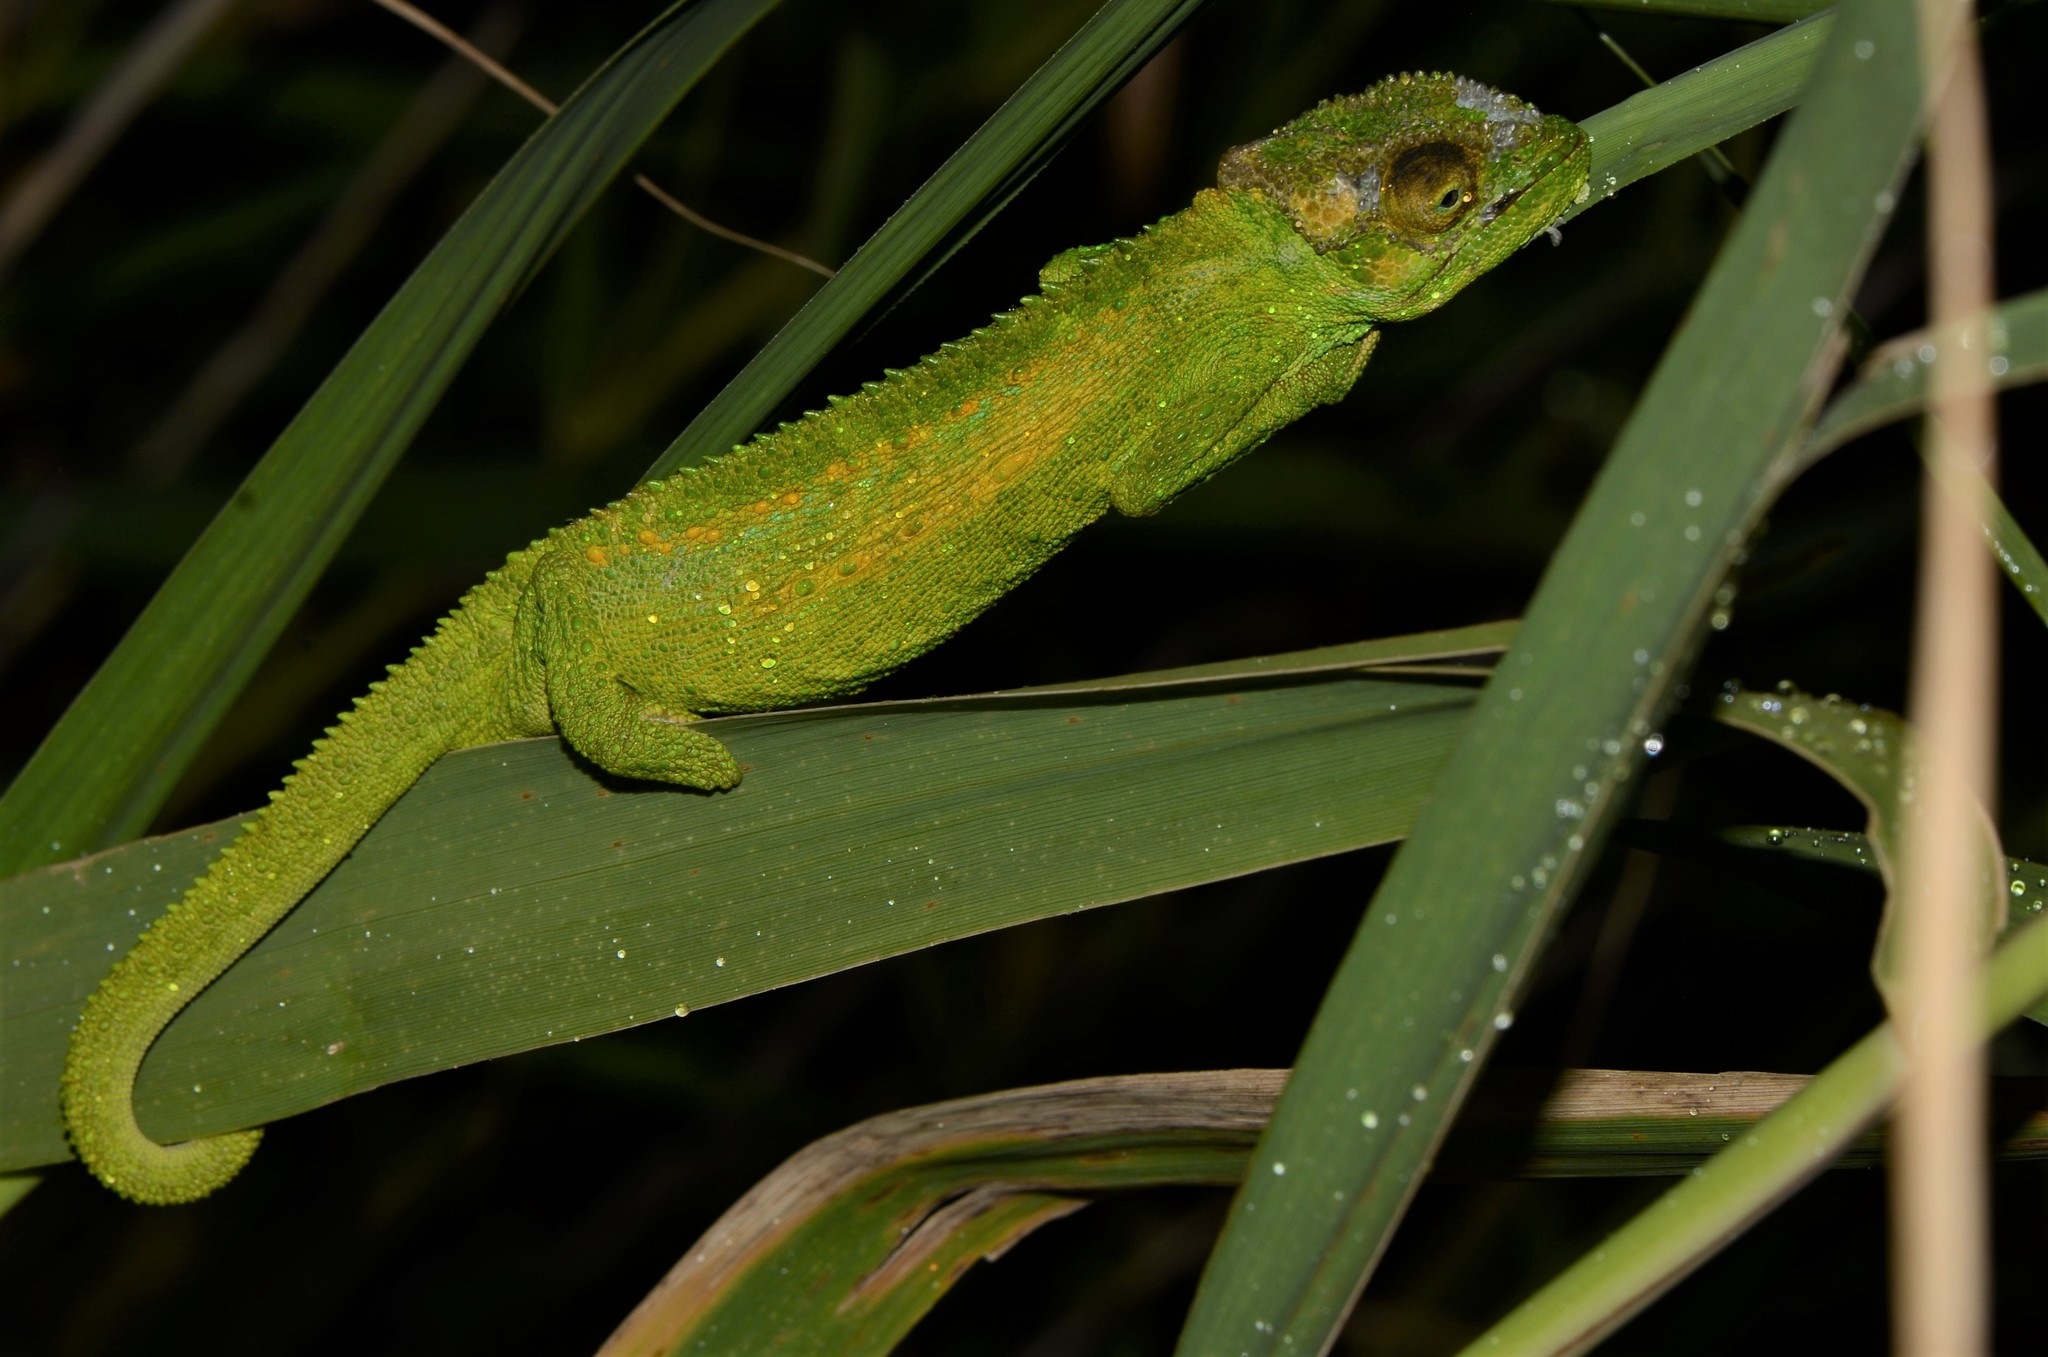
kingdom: Animalia
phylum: Chordata
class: Squamata
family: Chamaeleonidae
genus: Bradypodion
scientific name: Bradypodion pumilum
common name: Cape dwarf chameleon
